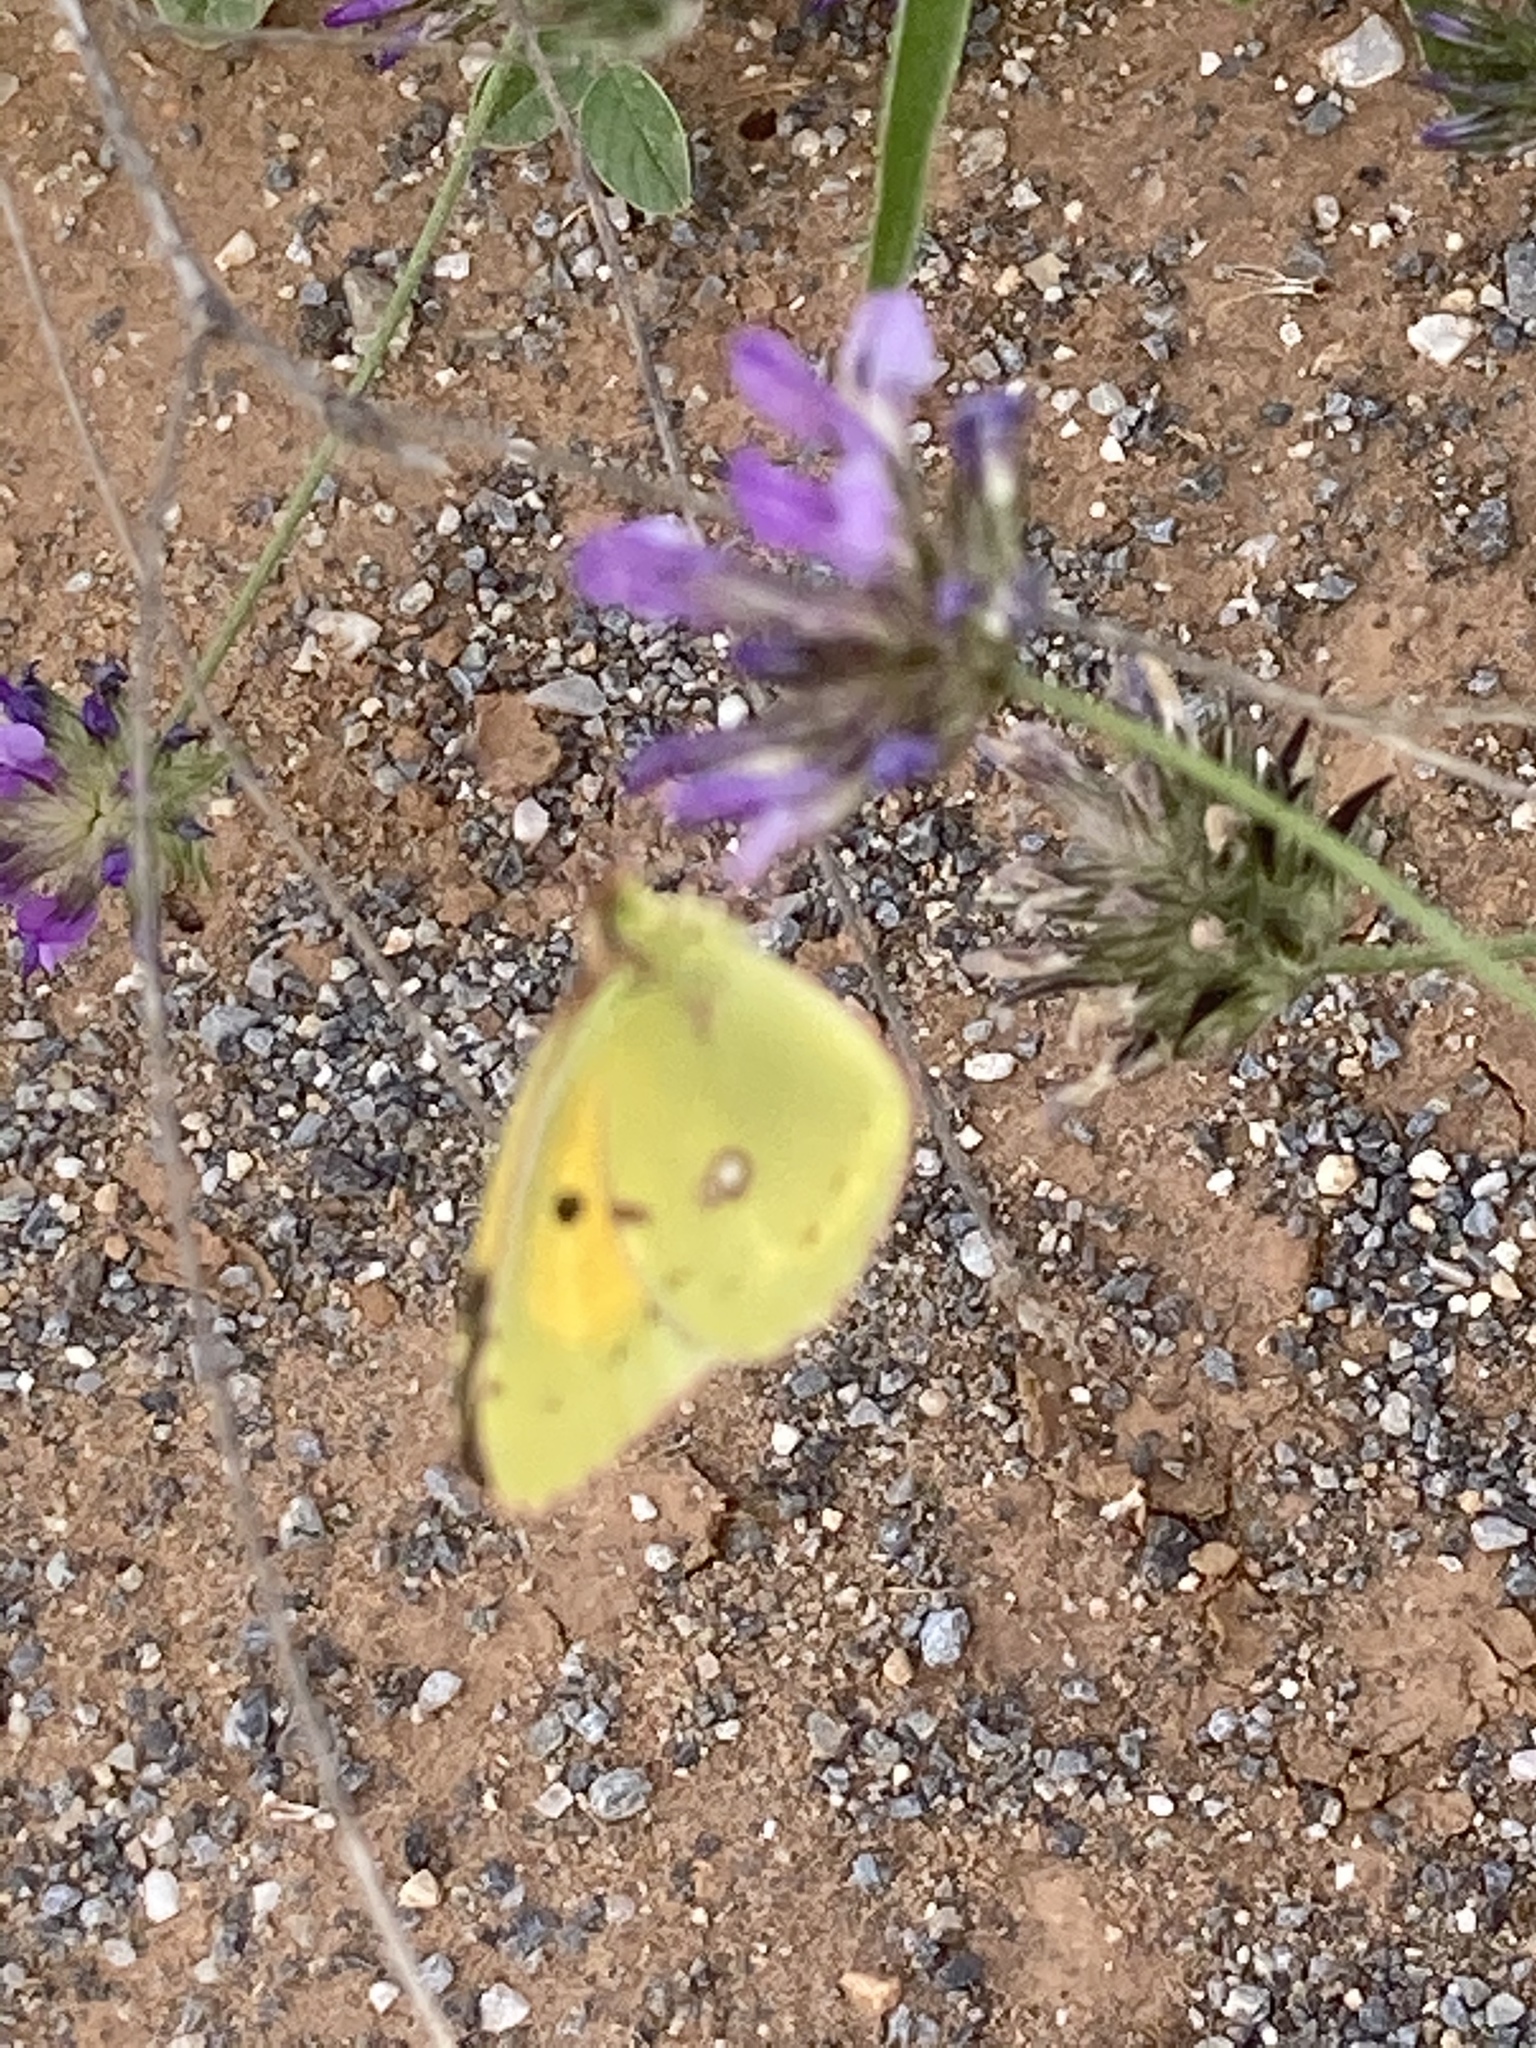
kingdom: Animalia
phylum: Arthropoda
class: Insecta
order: Lepidoptera
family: Pieridae
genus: Colias
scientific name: Colias croceus
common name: Clouded yellow
